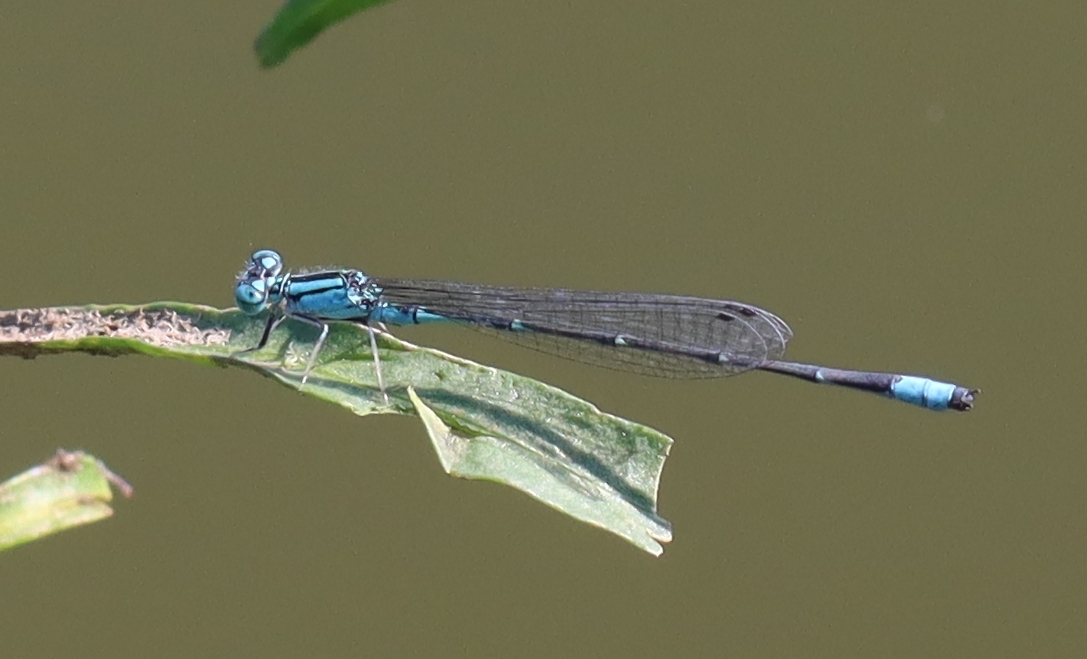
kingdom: Animalia
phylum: Arthropoda
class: Insecta
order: Odonata
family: Coenagrionidae
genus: Enallagma
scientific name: Enallagma traviatum
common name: Slender bluet
